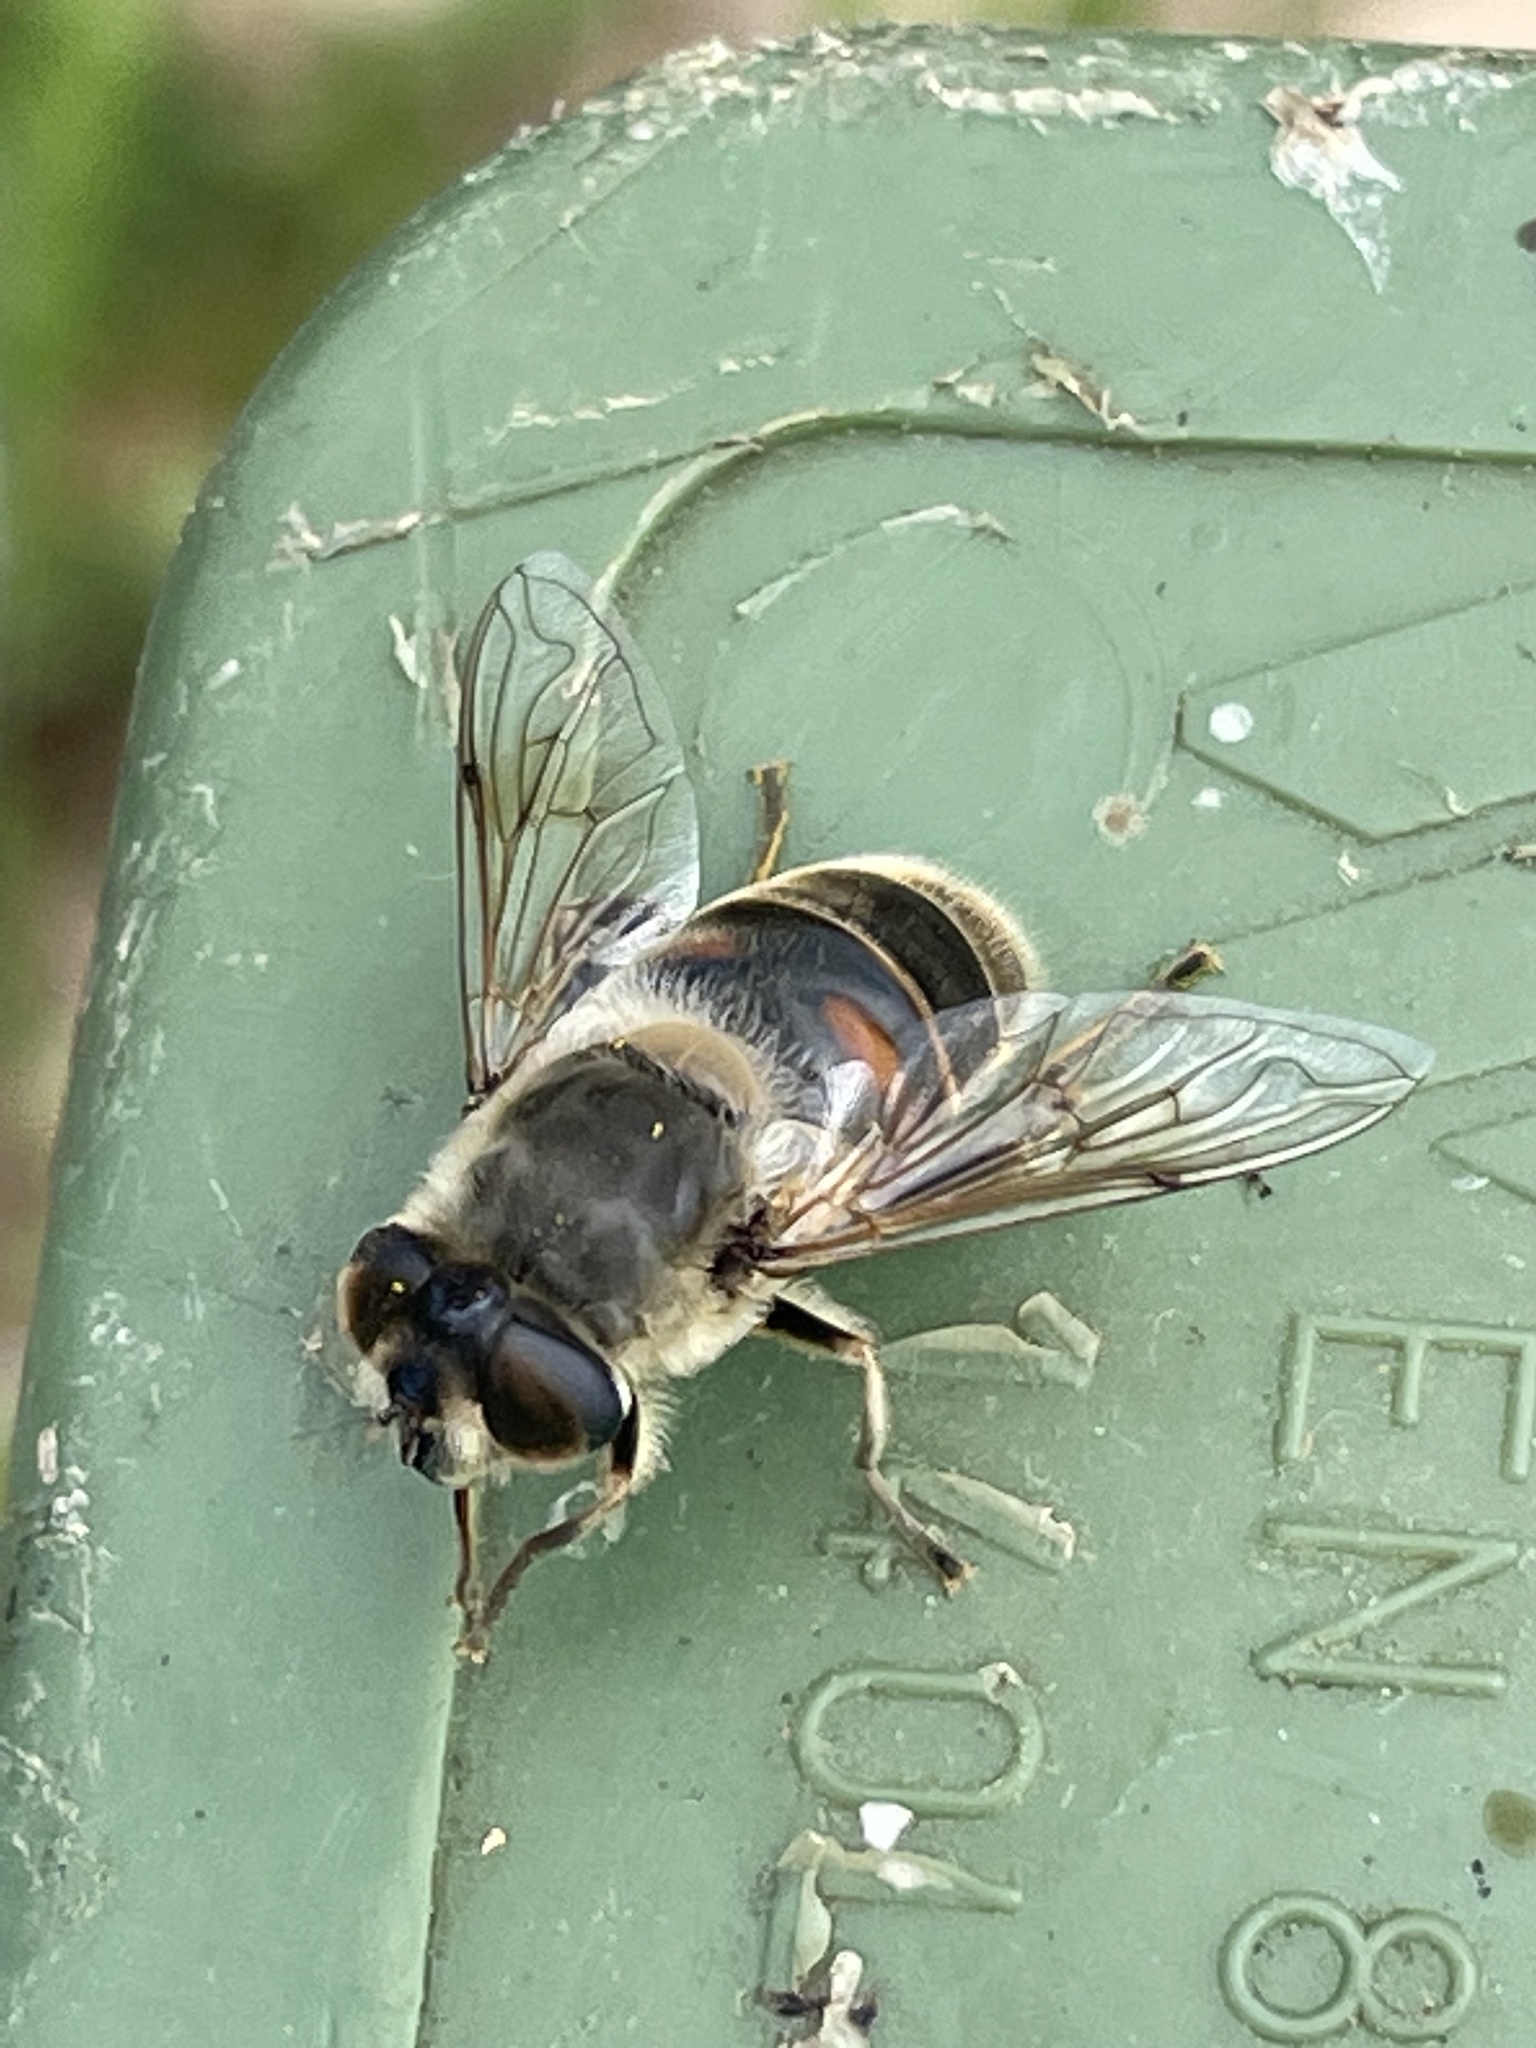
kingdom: Animalia
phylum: Arthropoda
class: Insecta
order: Diptera
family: Syrphidae
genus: Eristalis
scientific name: Eristalis tenax
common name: Drone fly
